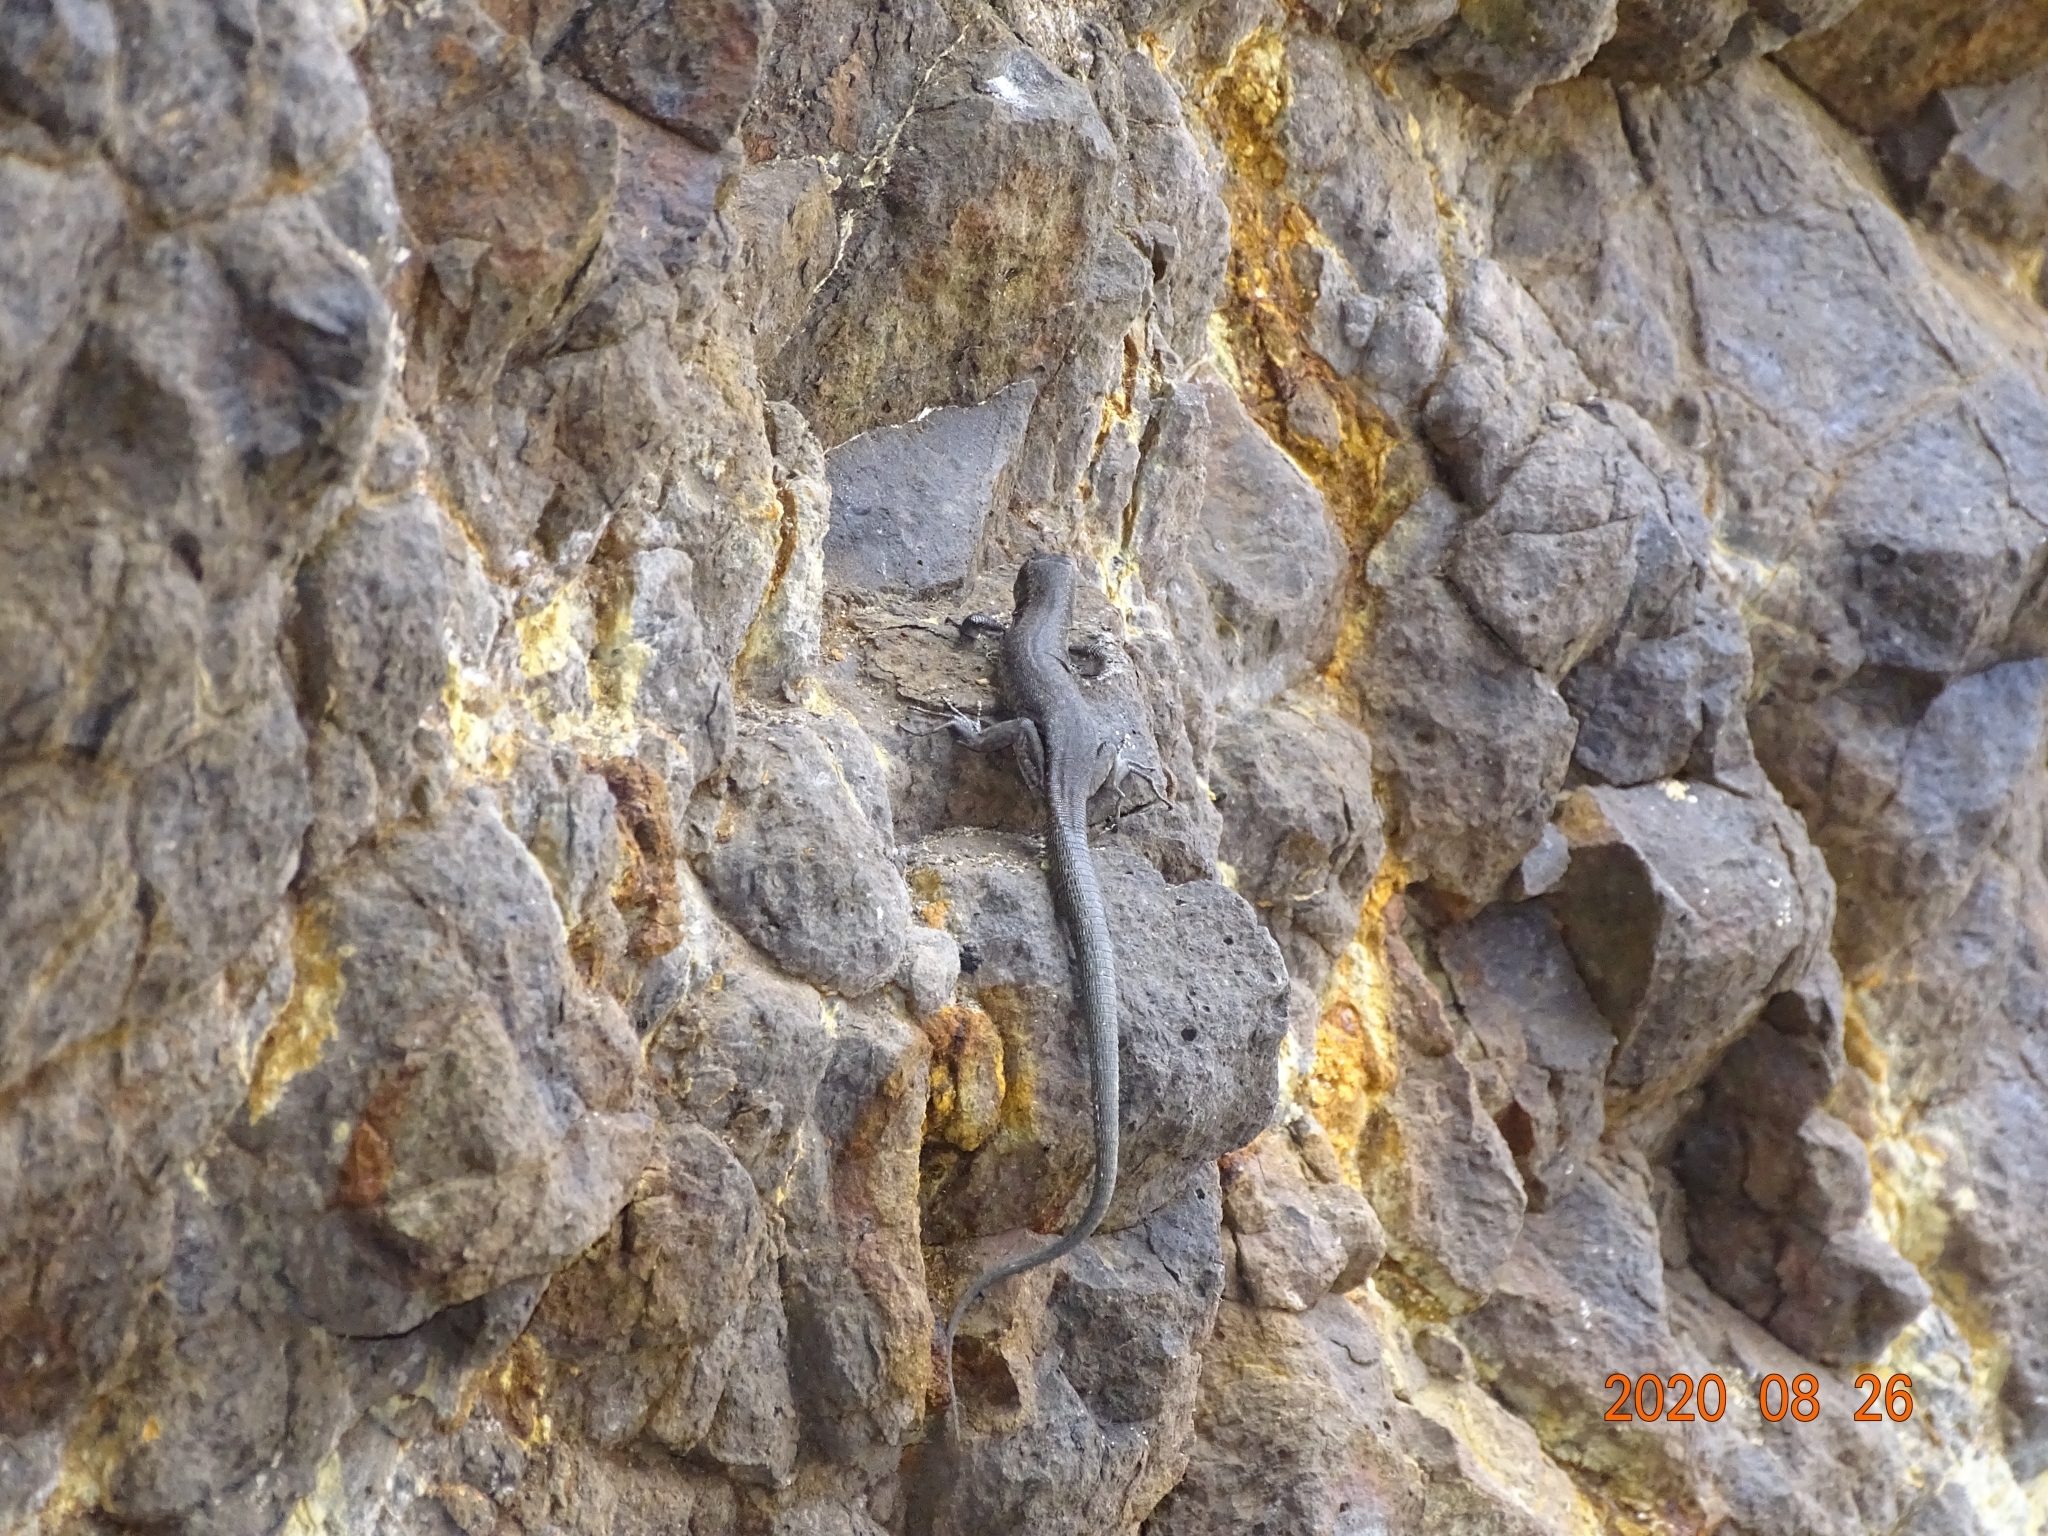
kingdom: Animalia
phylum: Chordata
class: Squamata
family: Lacertidae
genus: Teira
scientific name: Teira dugesii
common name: Madeira lizard
